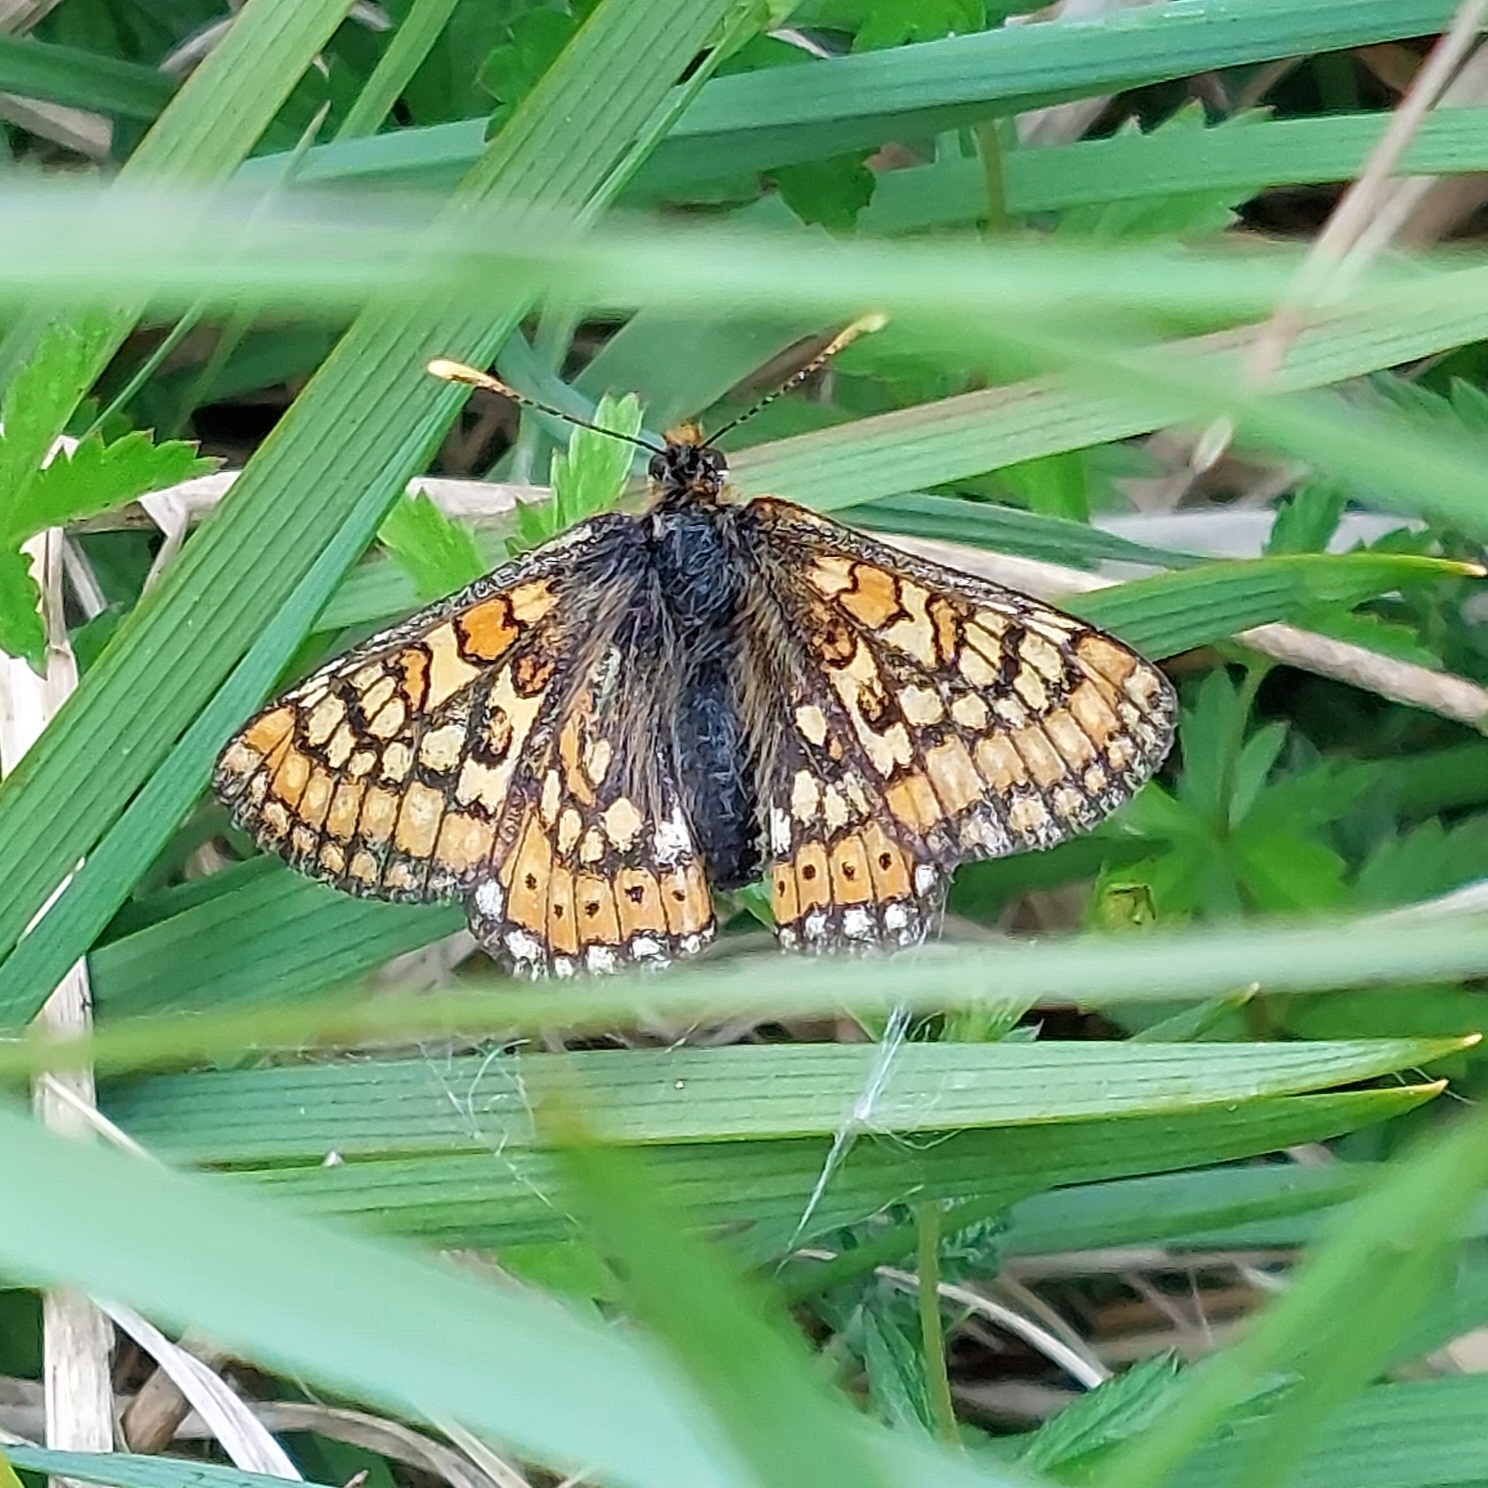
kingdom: Animalia
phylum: Arthropoda
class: Insecta
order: Lepidoptera
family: Nymphalidae
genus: Euphydryas
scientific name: Euphydryas aurinia
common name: Marsh fritillary
